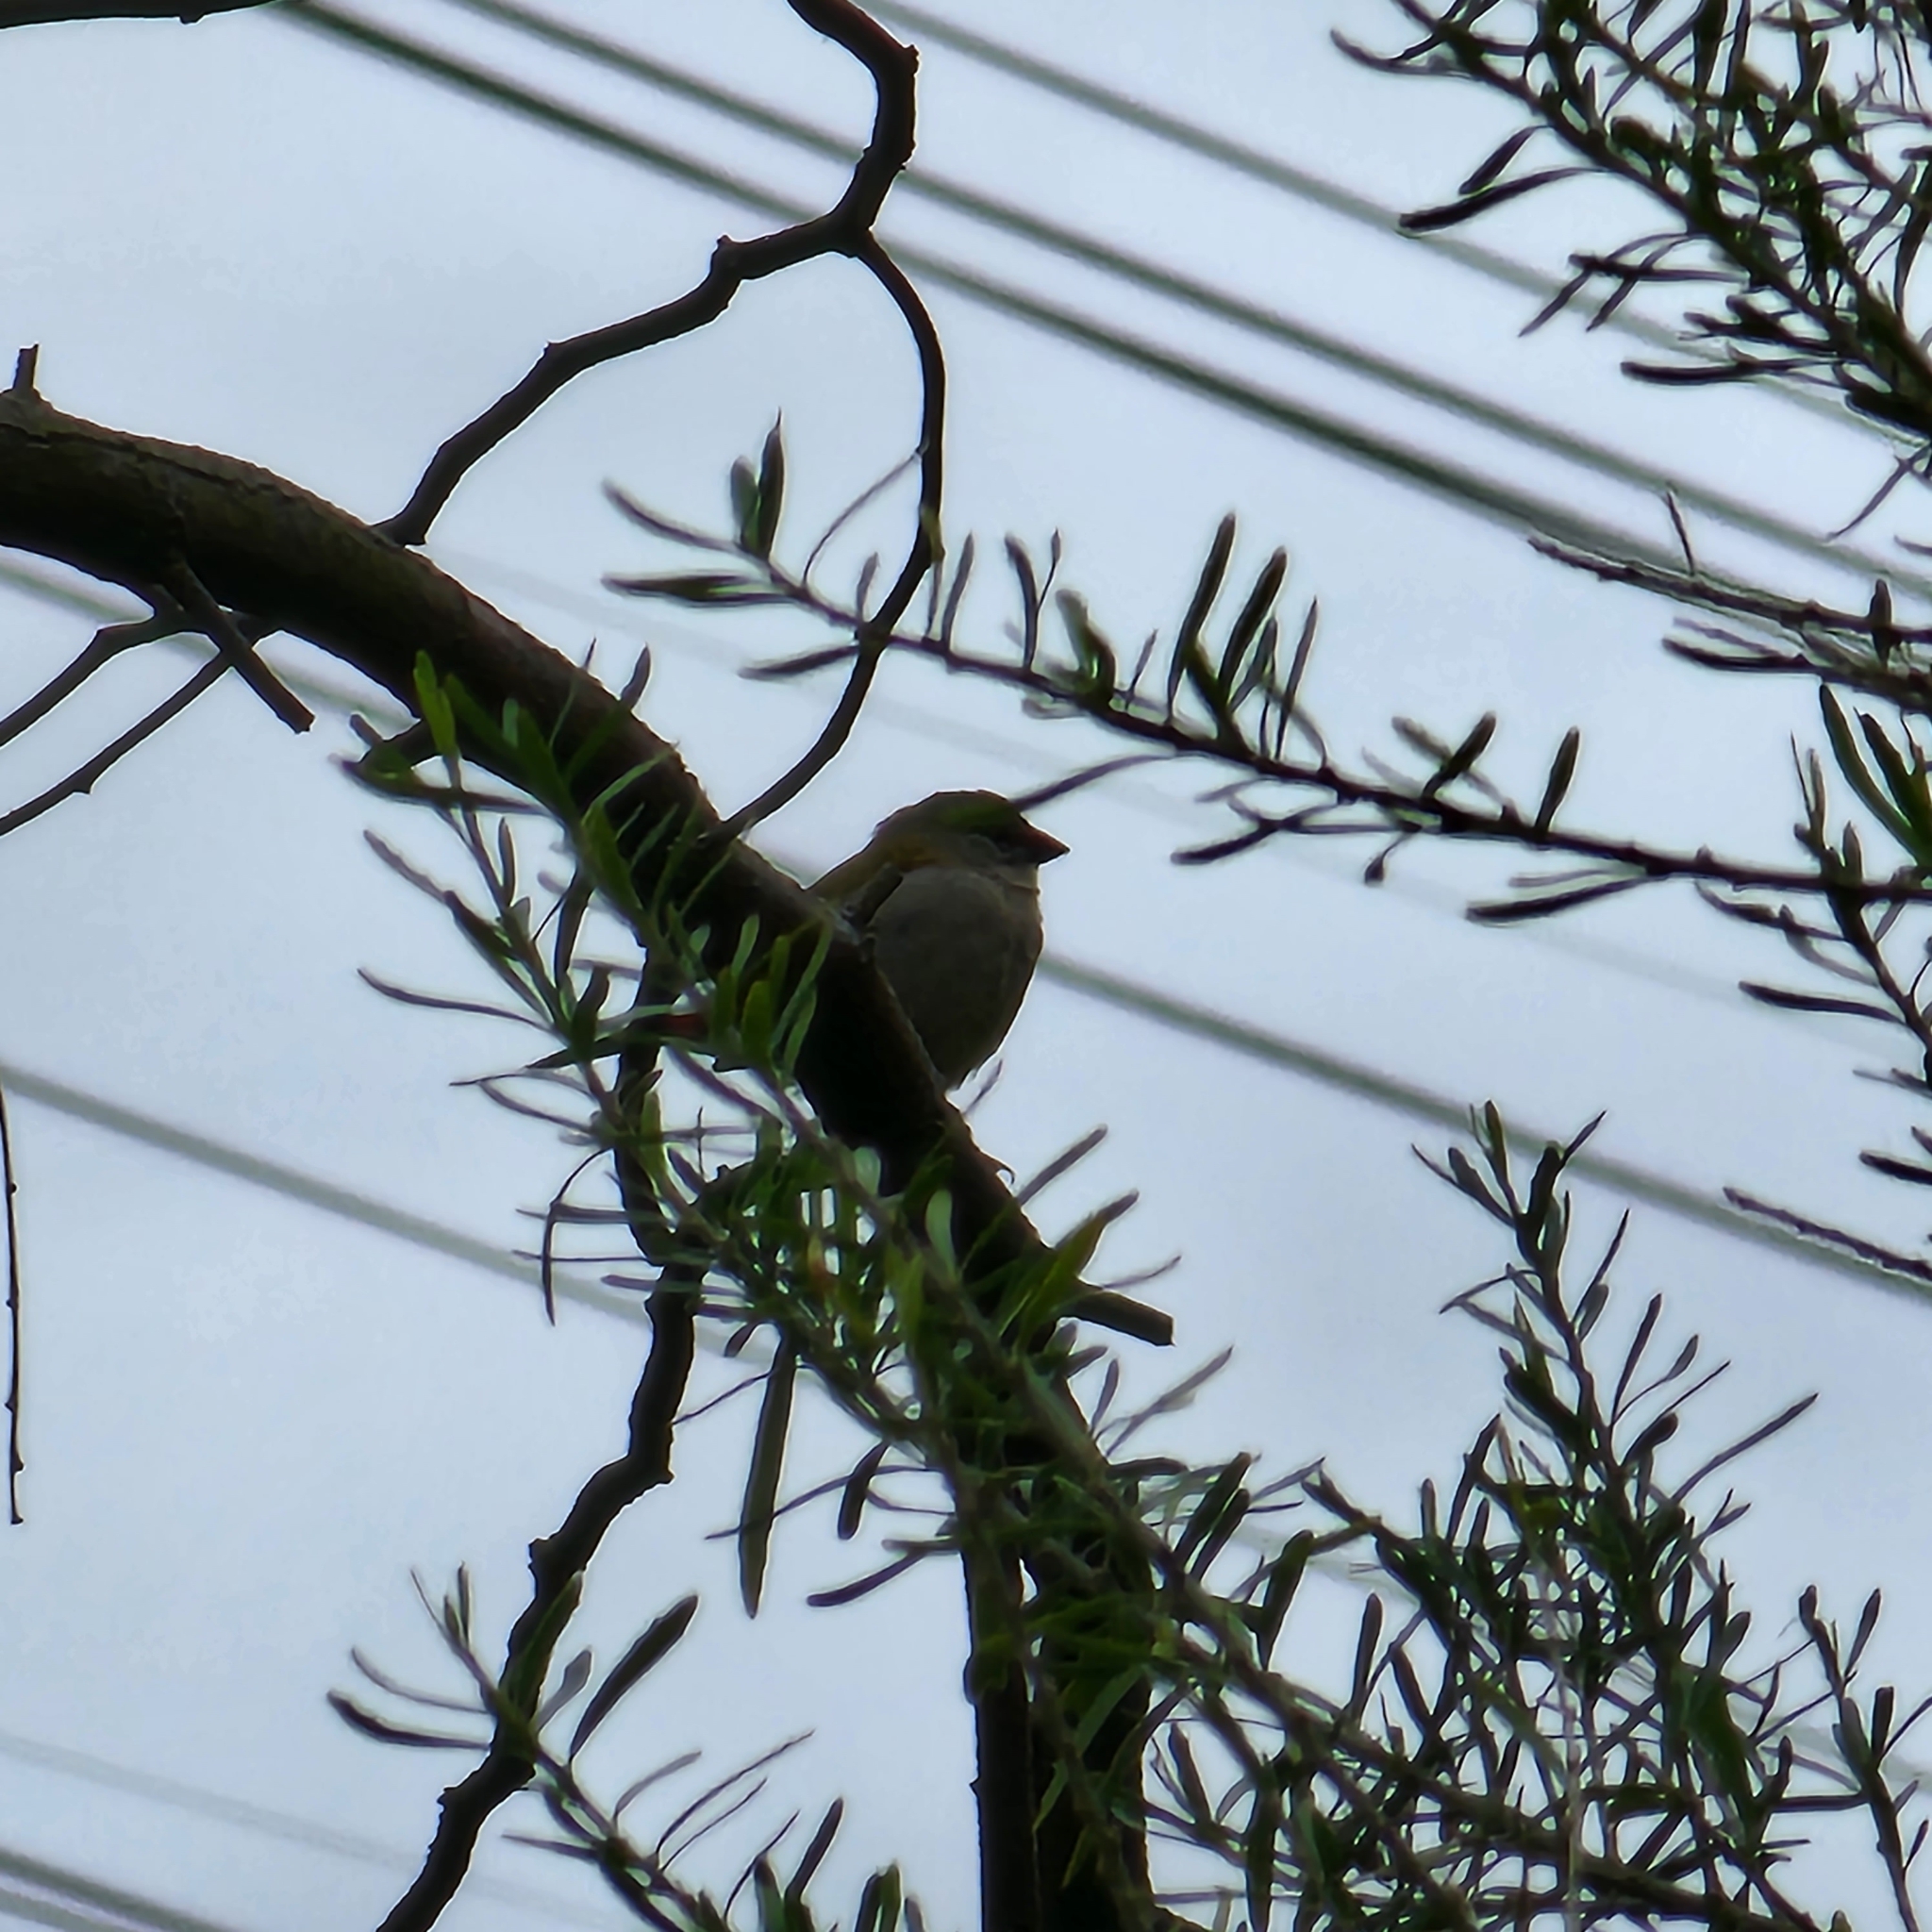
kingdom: Animalia
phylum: Chordata
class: Aves
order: Passeriformes
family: Estrildidae
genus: Neochmia
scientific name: Neochmia temporalis
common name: Red-browed finch
